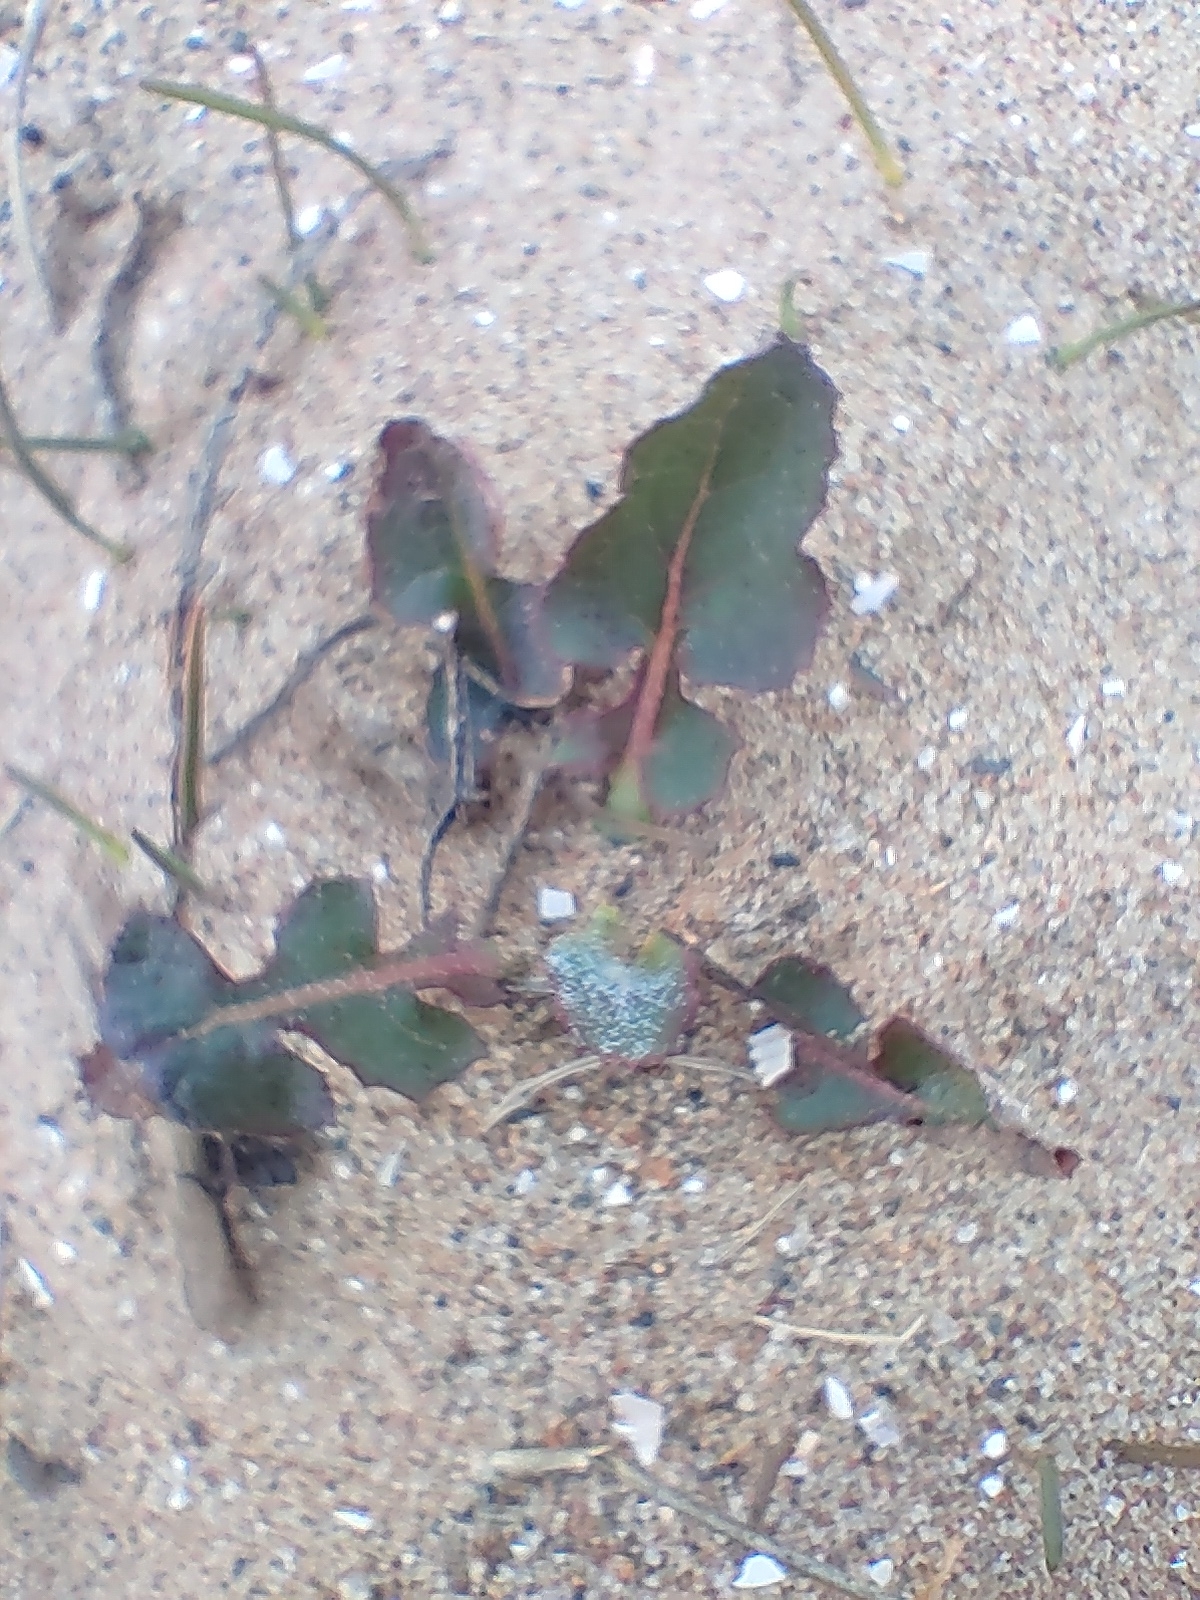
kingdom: Plantae
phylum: Tracheophyta
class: Magnoliopsida
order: Asterales
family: Asteraceae
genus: Sonchus
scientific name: Sonchus oleraceus
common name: Common sowthistle
